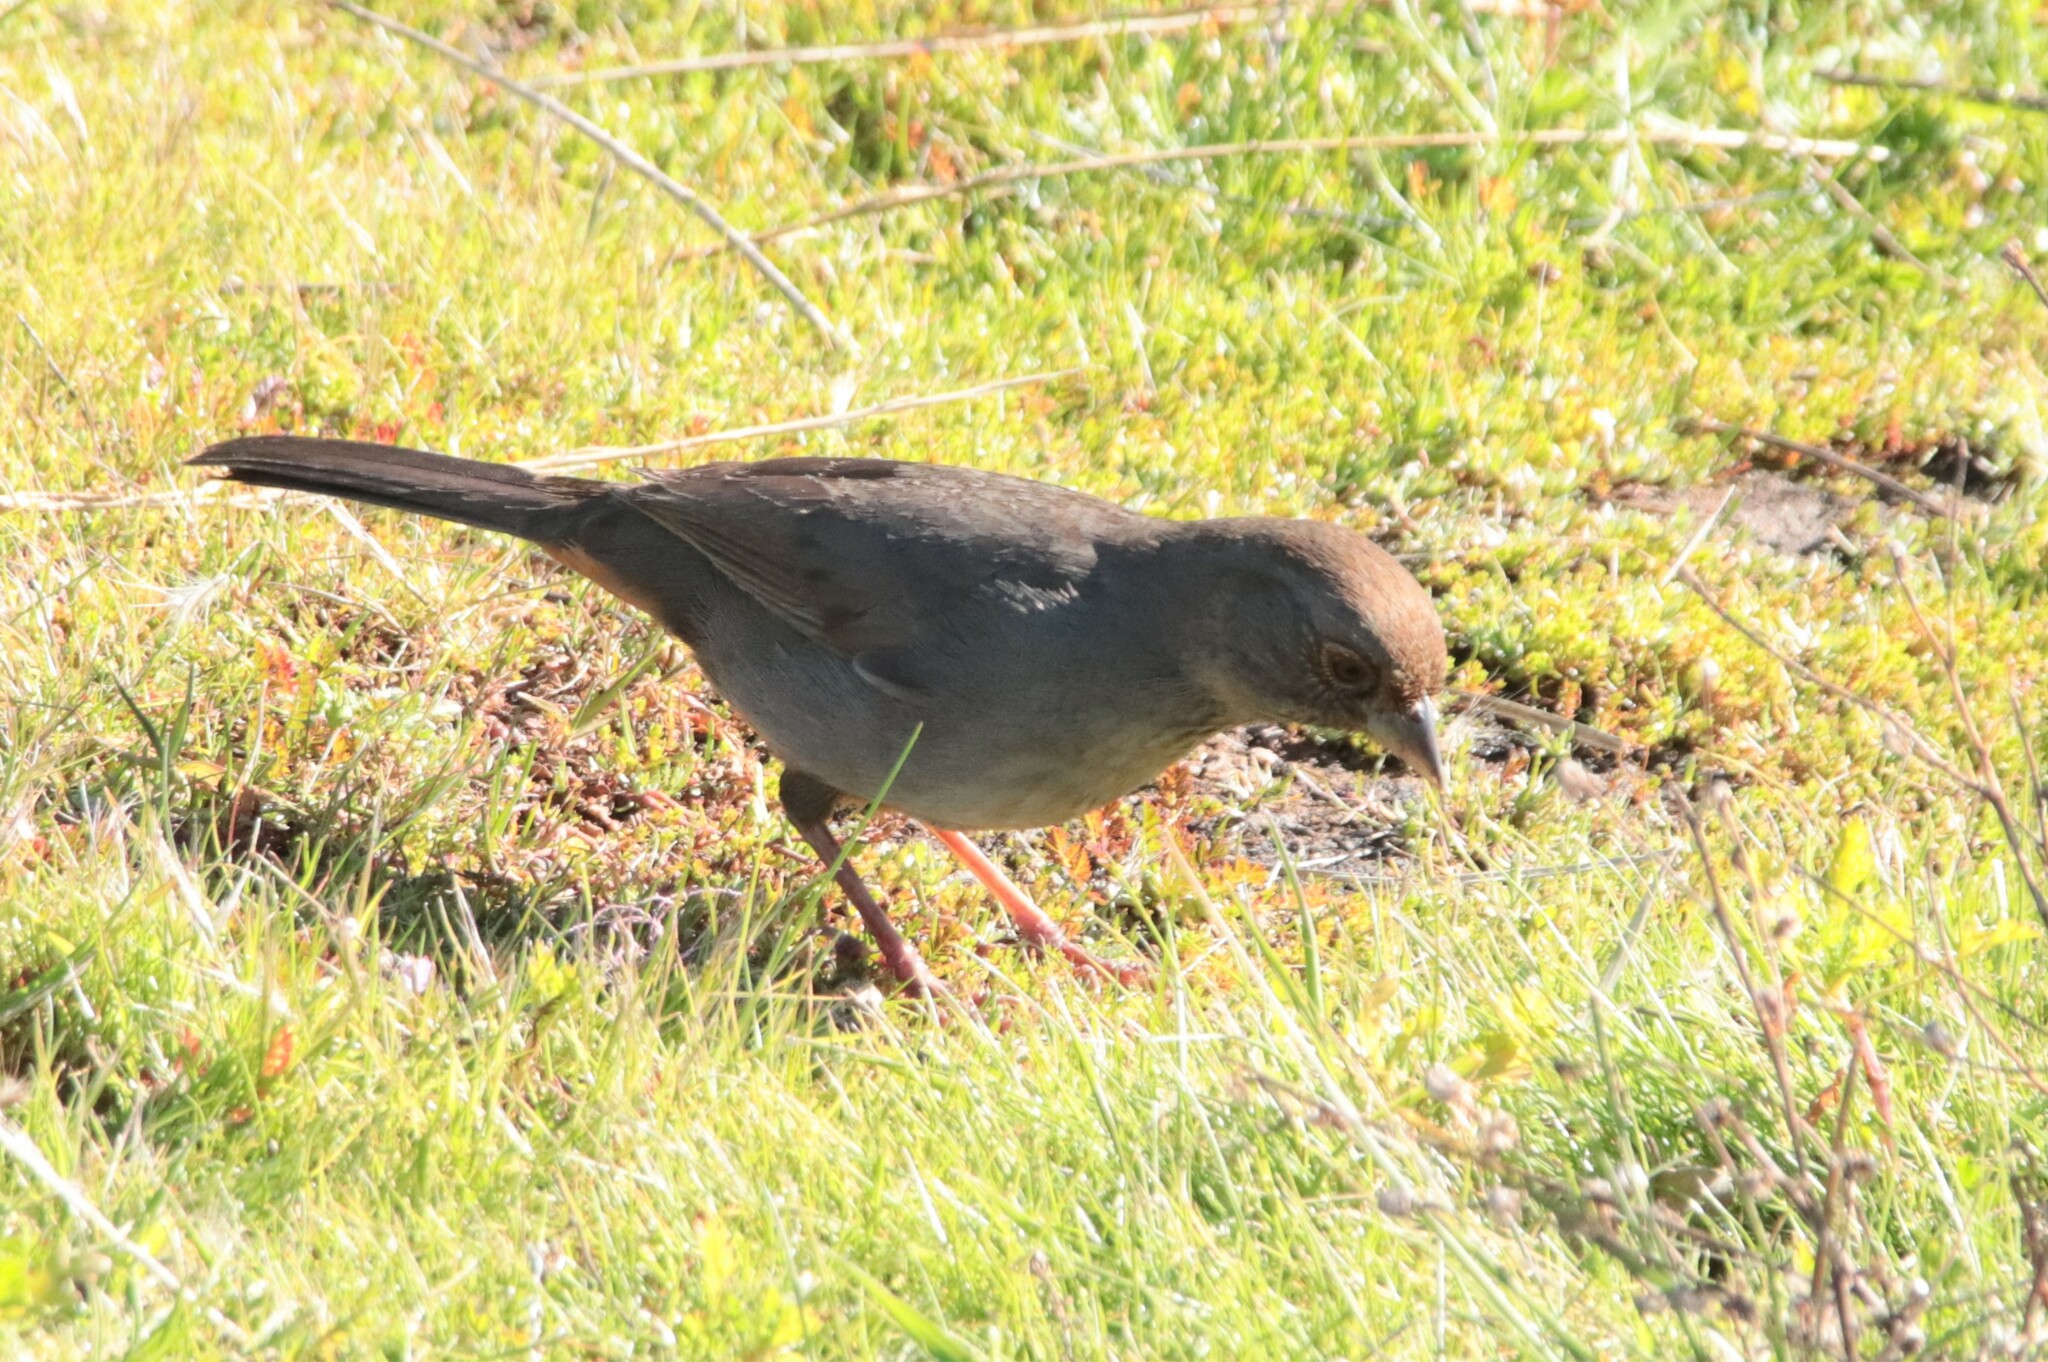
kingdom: Animalia
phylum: Chordata
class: Aves
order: Passeriformes
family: Passerellidae
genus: Melozone
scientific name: Melozone crissalis
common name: California towhee
